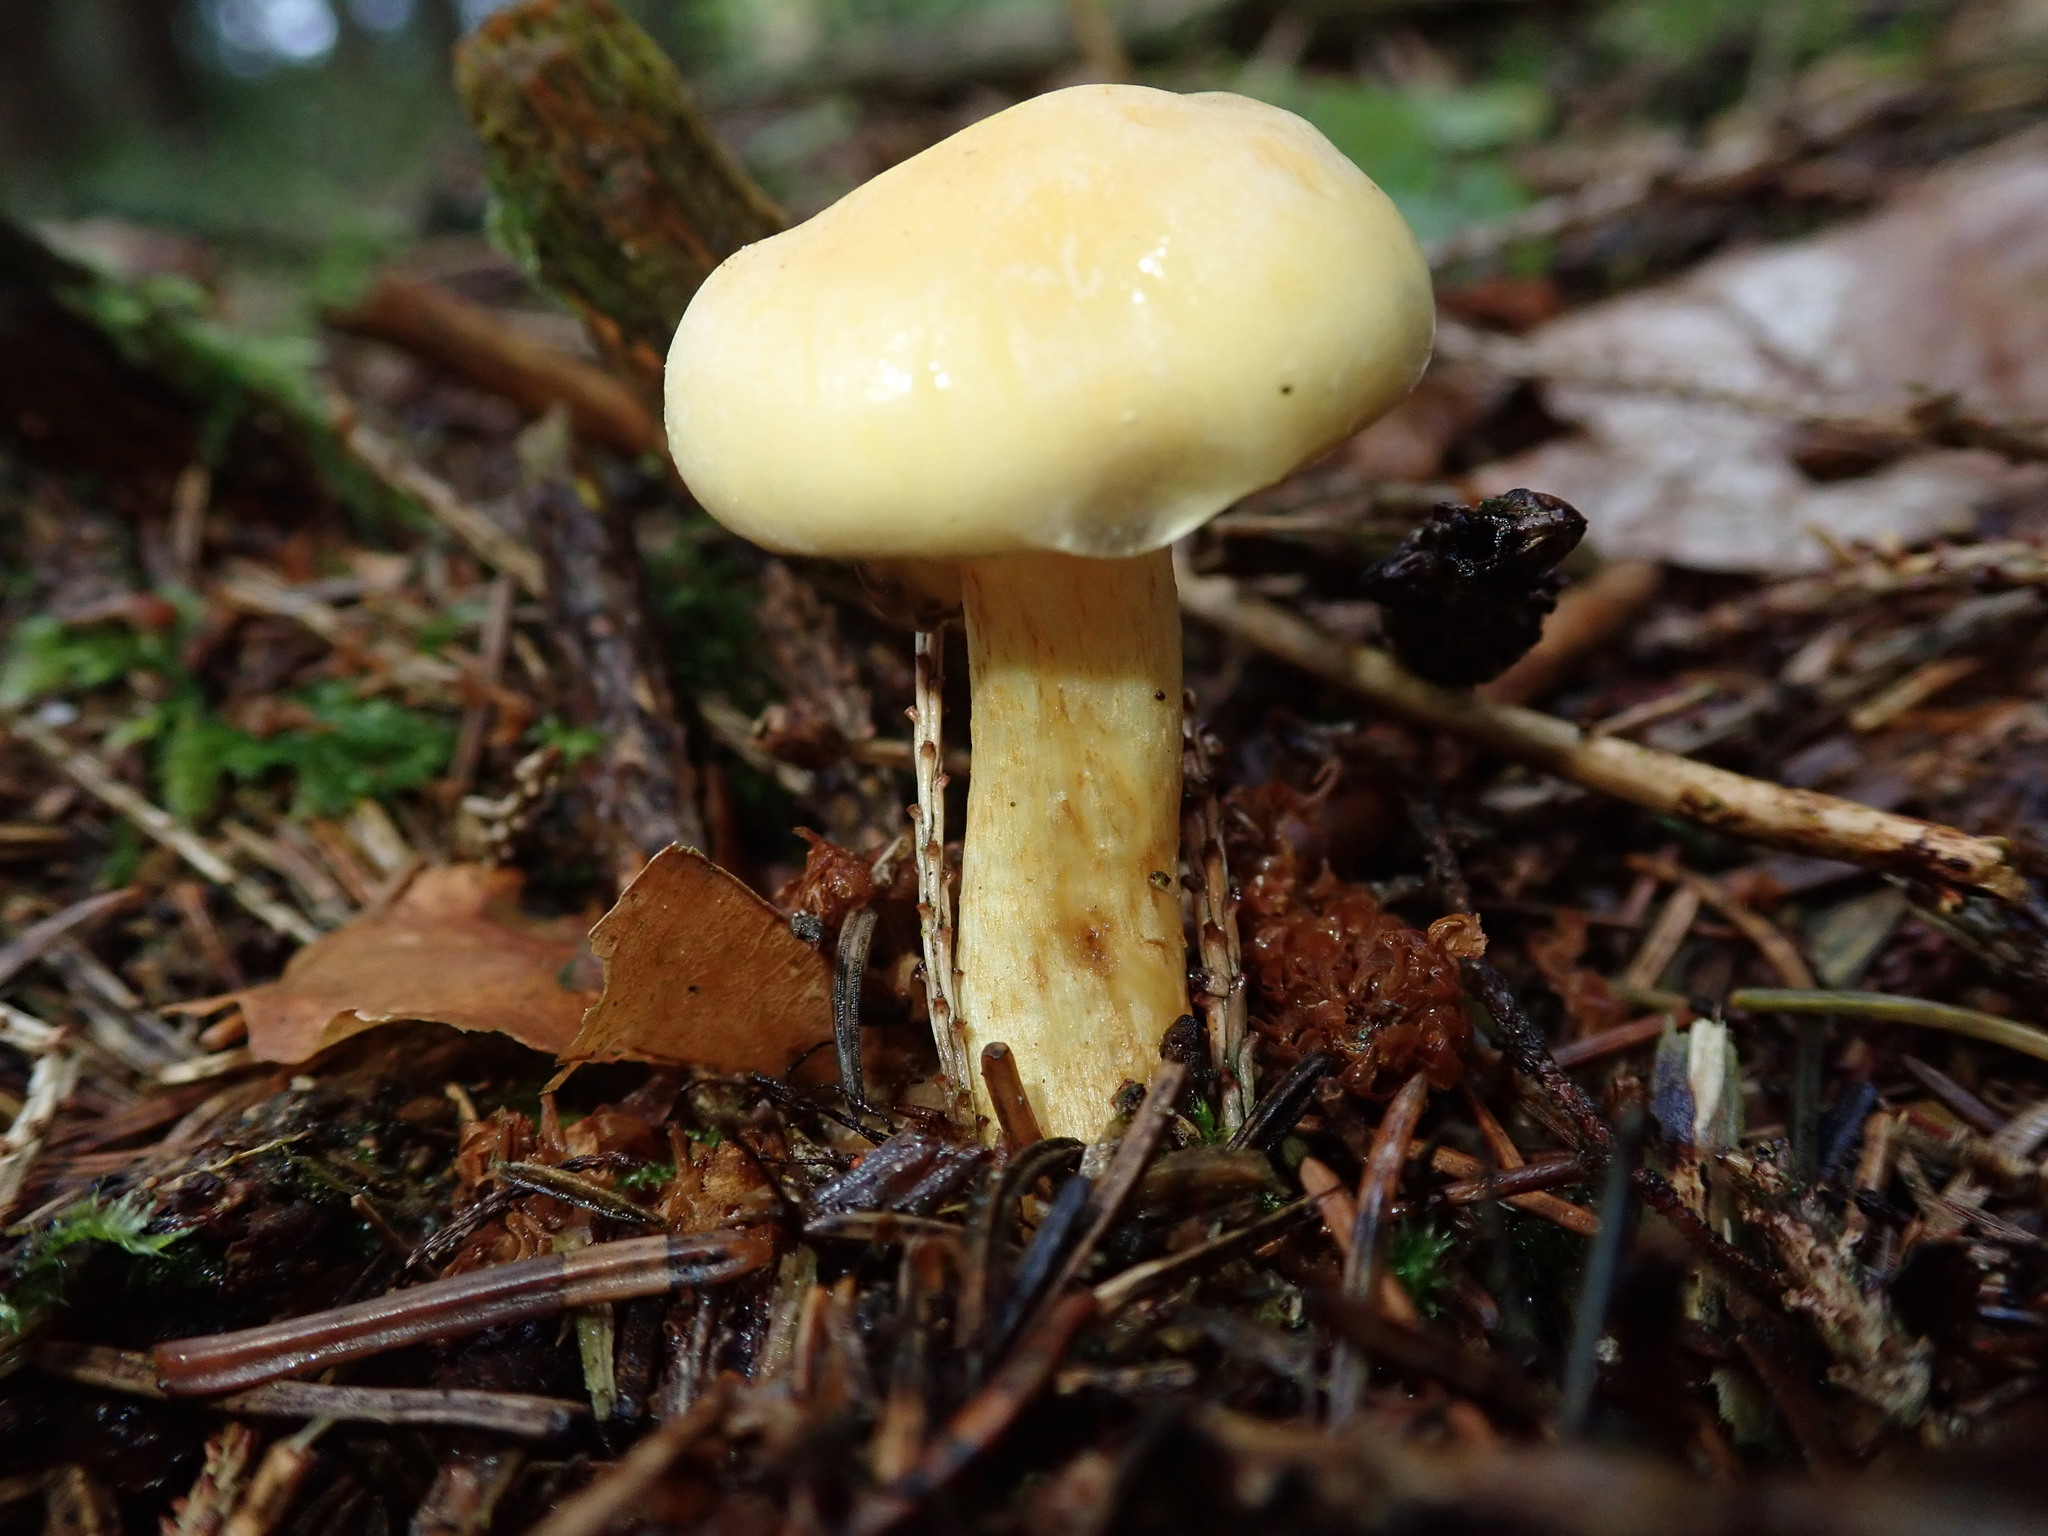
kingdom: Fungi
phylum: Basidiomycota
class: Agaricomycetes
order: Agaricales
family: Strophariaceae
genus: Hypholoma
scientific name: Hypholoma fasciculare
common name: Sulphur tuft
